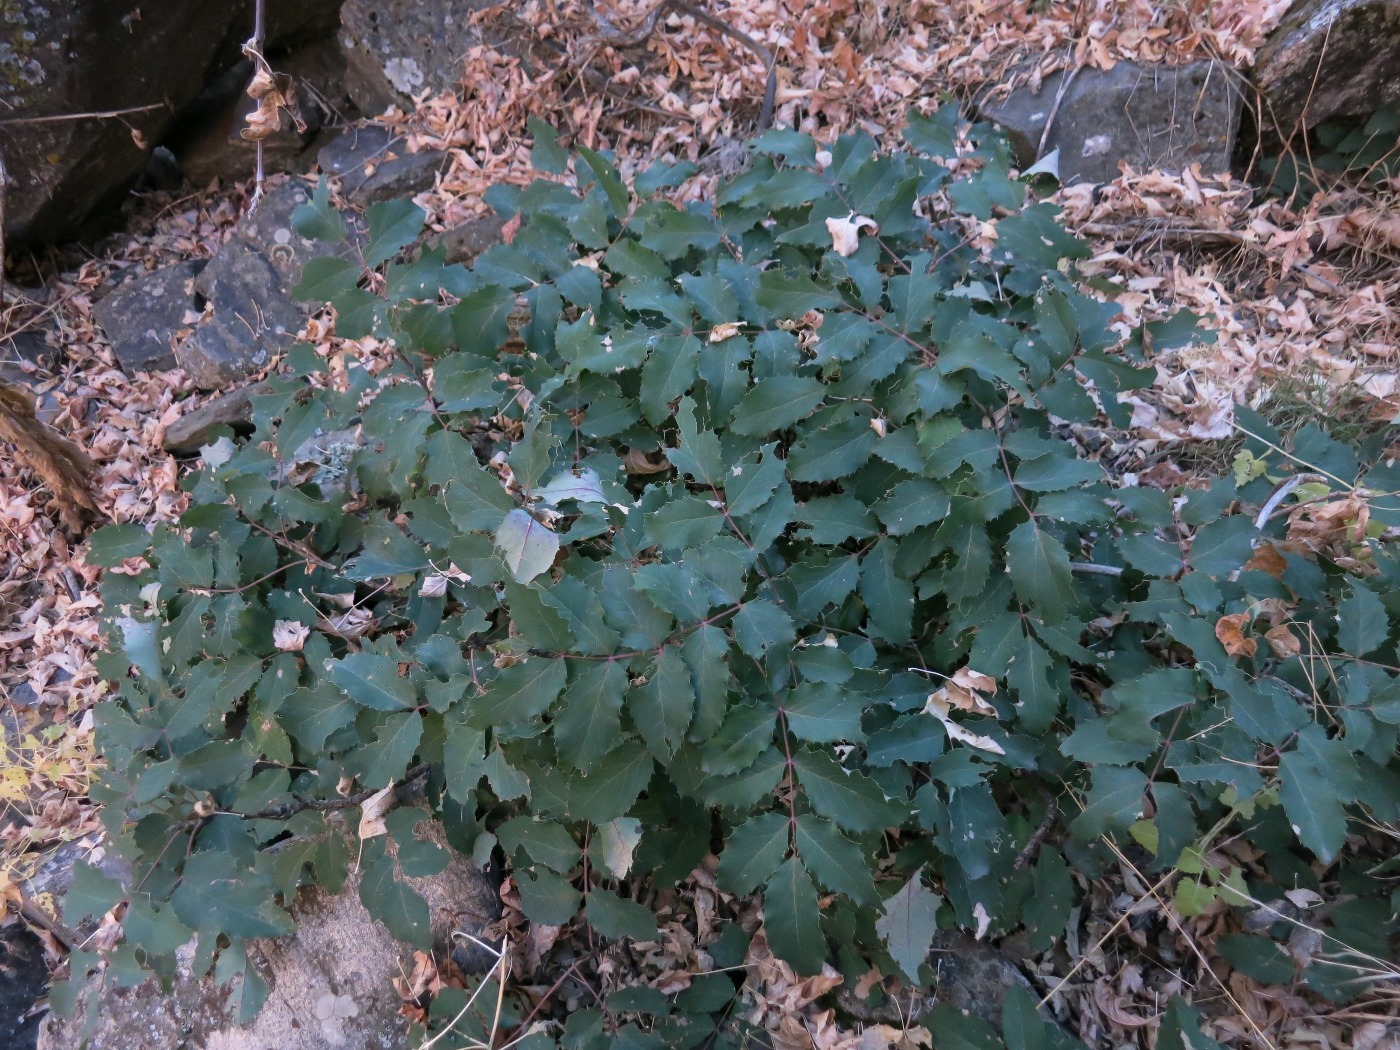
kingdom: Plantae
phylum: Tracheophyta
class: Magnoliopsida
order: Ranunculales
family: Berberidaceae
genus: Mahonia
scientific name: Mahonia repens
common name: Creeping oregon-grape
